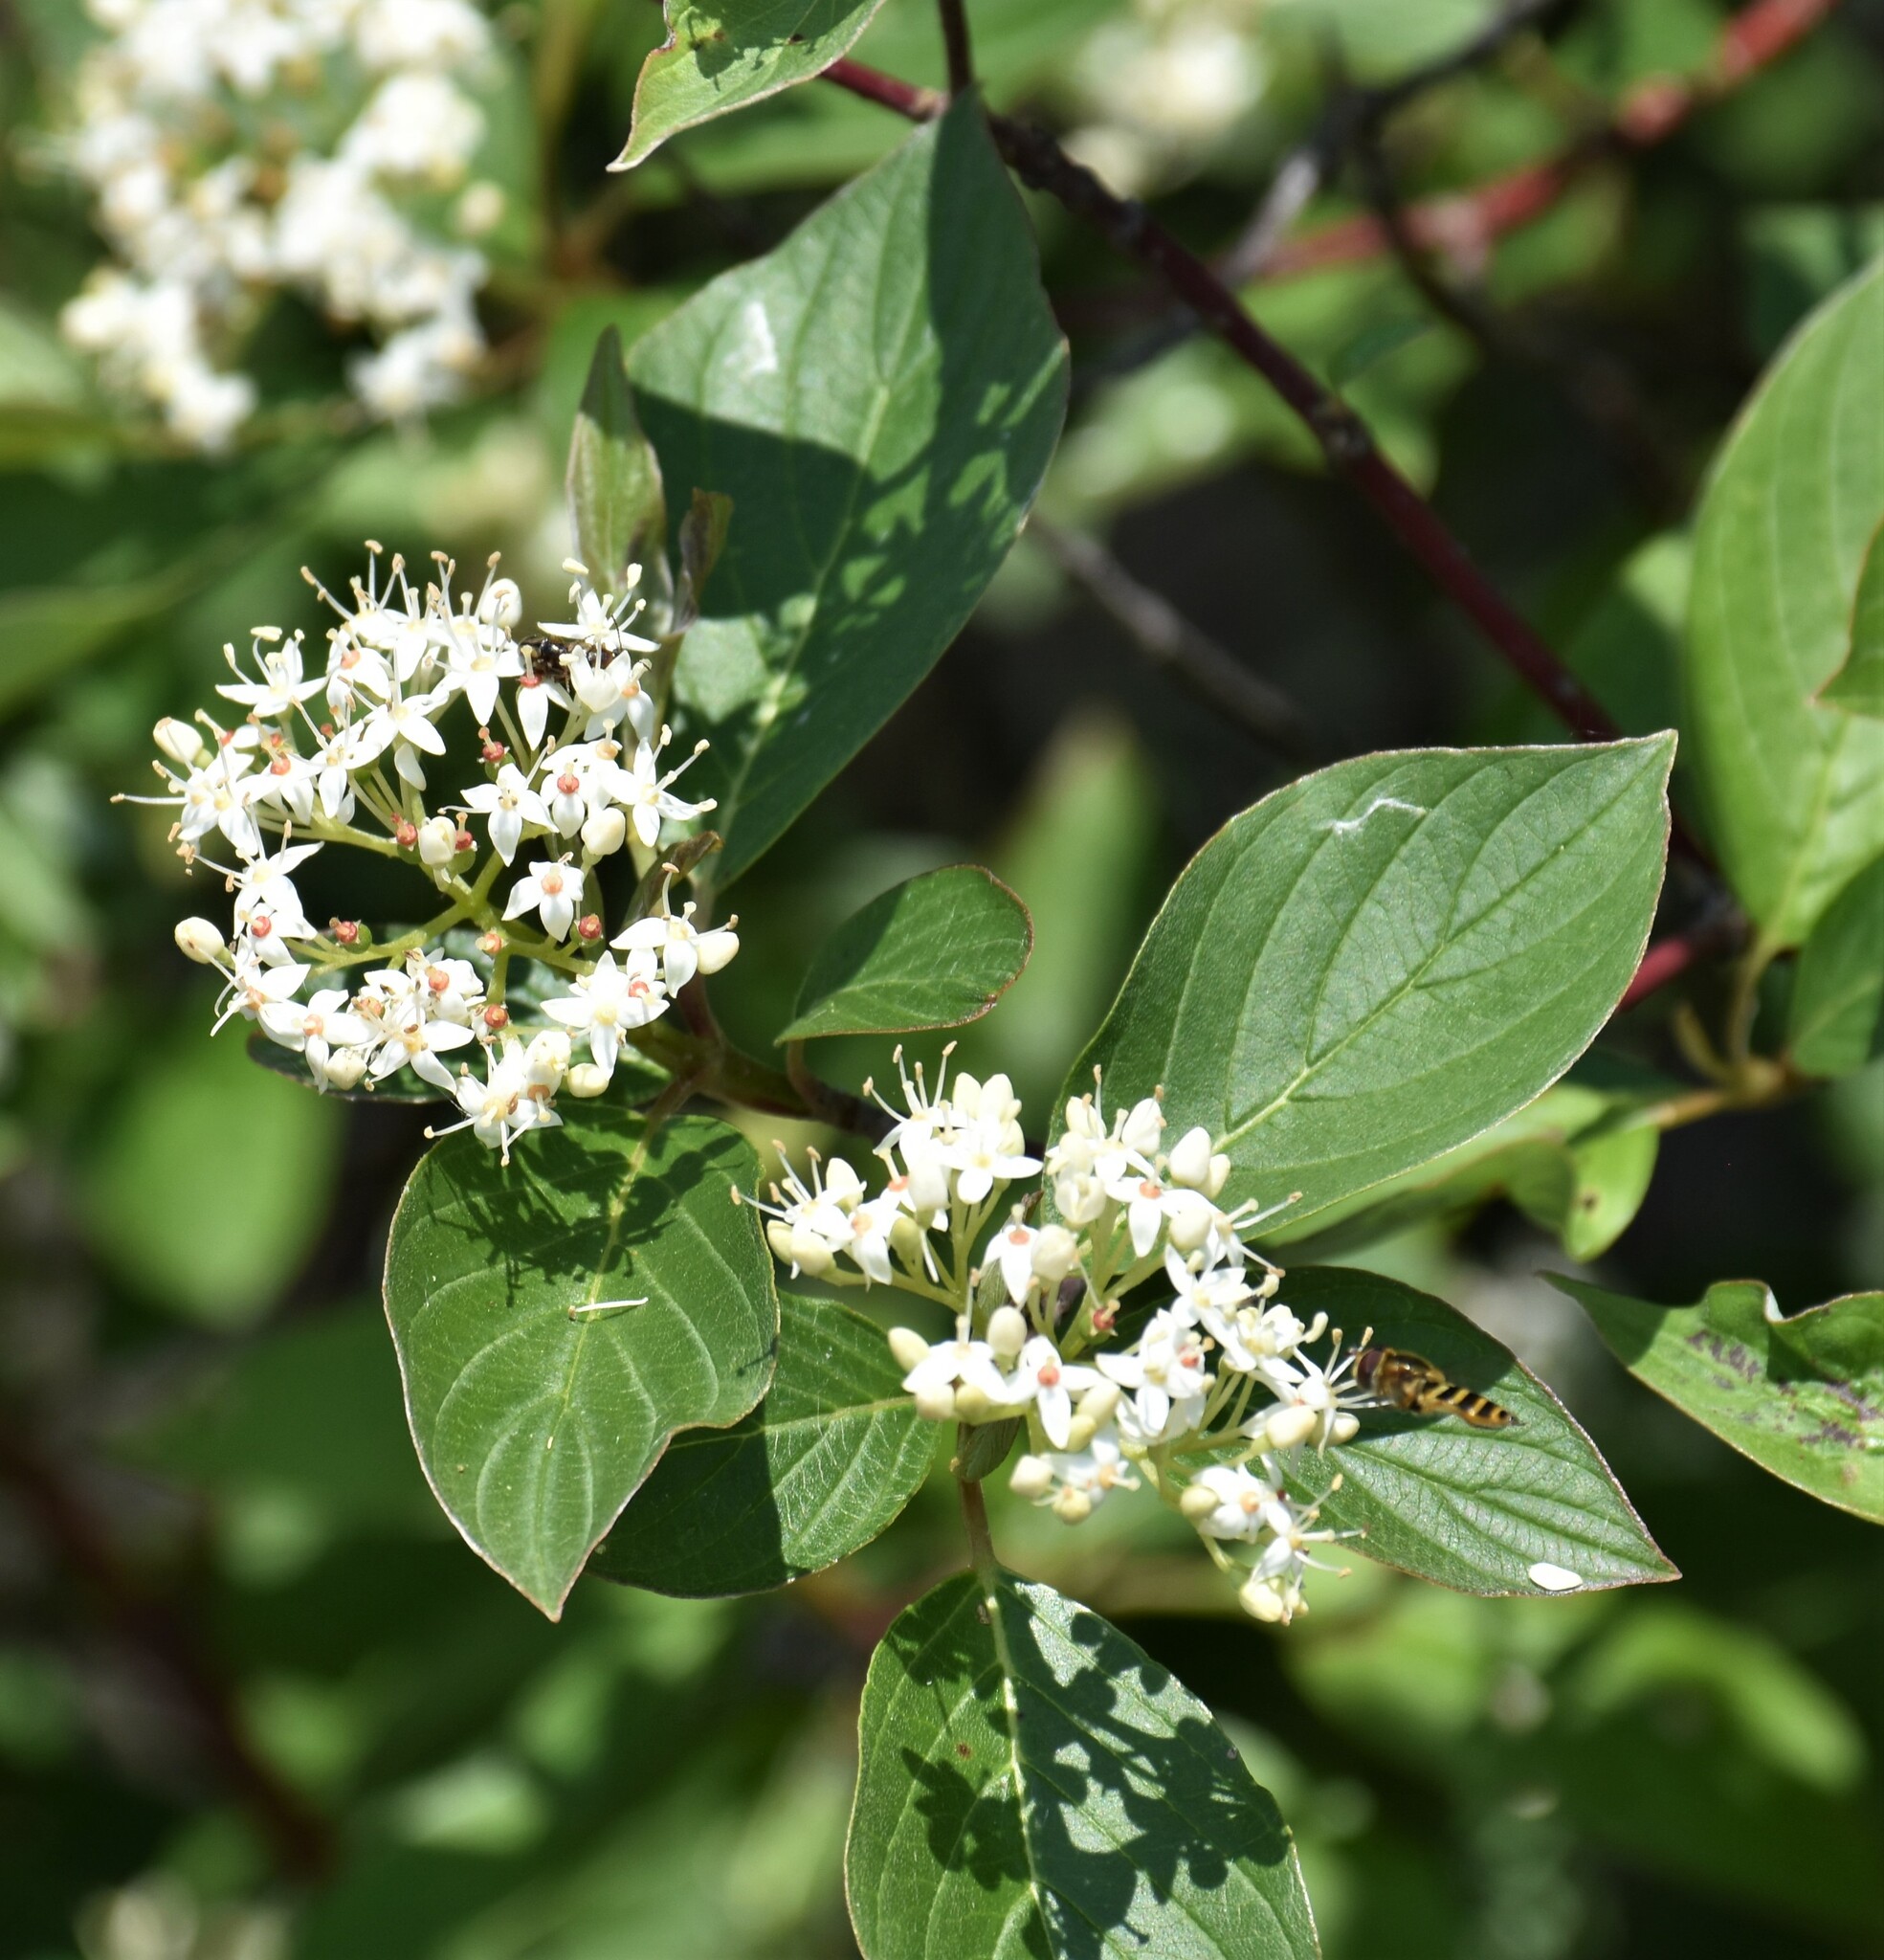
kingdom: Plantae
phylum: Tracheophyta
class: Magnoliopsida
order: Cornales
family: Cornaceae
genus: Cornus
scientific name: Cornus sericea
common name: Red-osier dogwood
